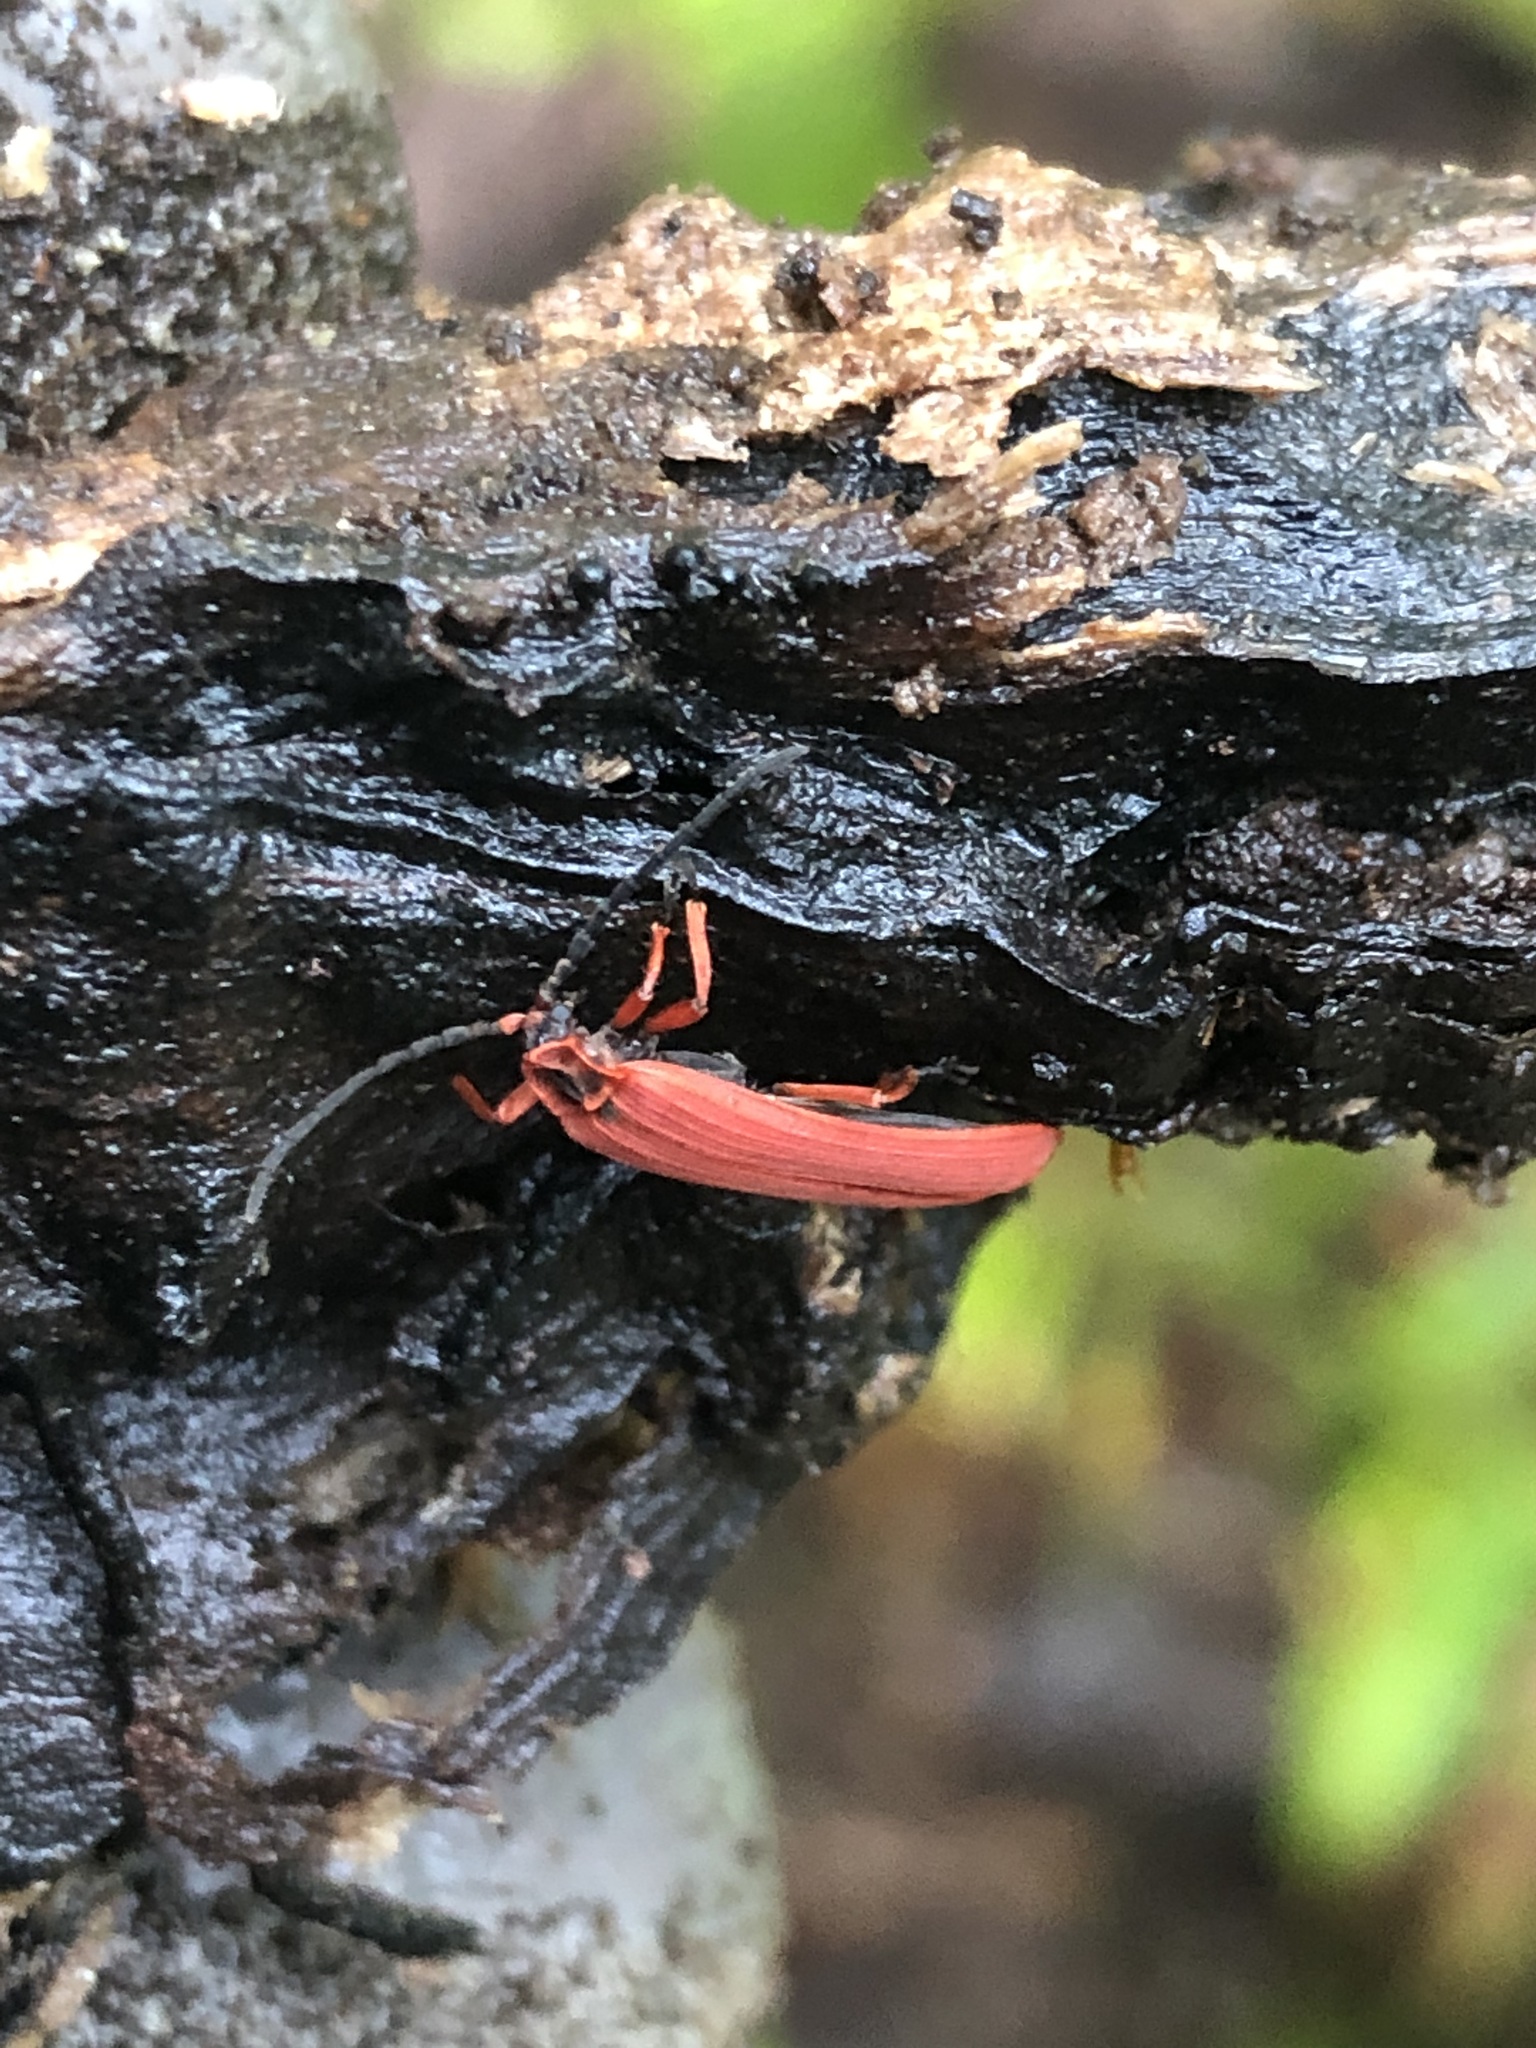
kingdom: Animalia
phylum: Arthropoda
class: Insecta
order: Coleoptera
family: Lycidae
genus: Dictyoptera
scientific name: Dictyoptera simplicipes
